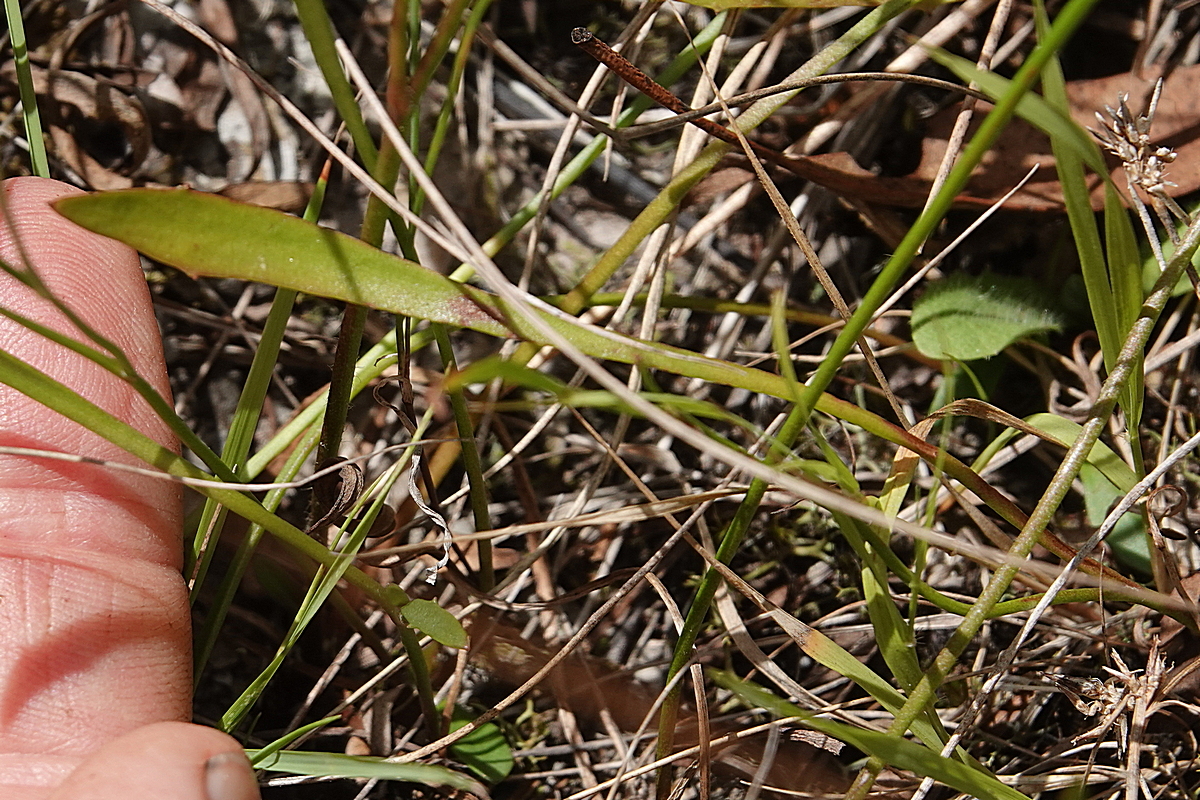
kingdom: Plantae
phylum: Tracheophyta
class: Magnoliopsida
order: Asterales
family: Goodeniaceae
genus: Goodenia
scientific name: Goodenia paniculata
